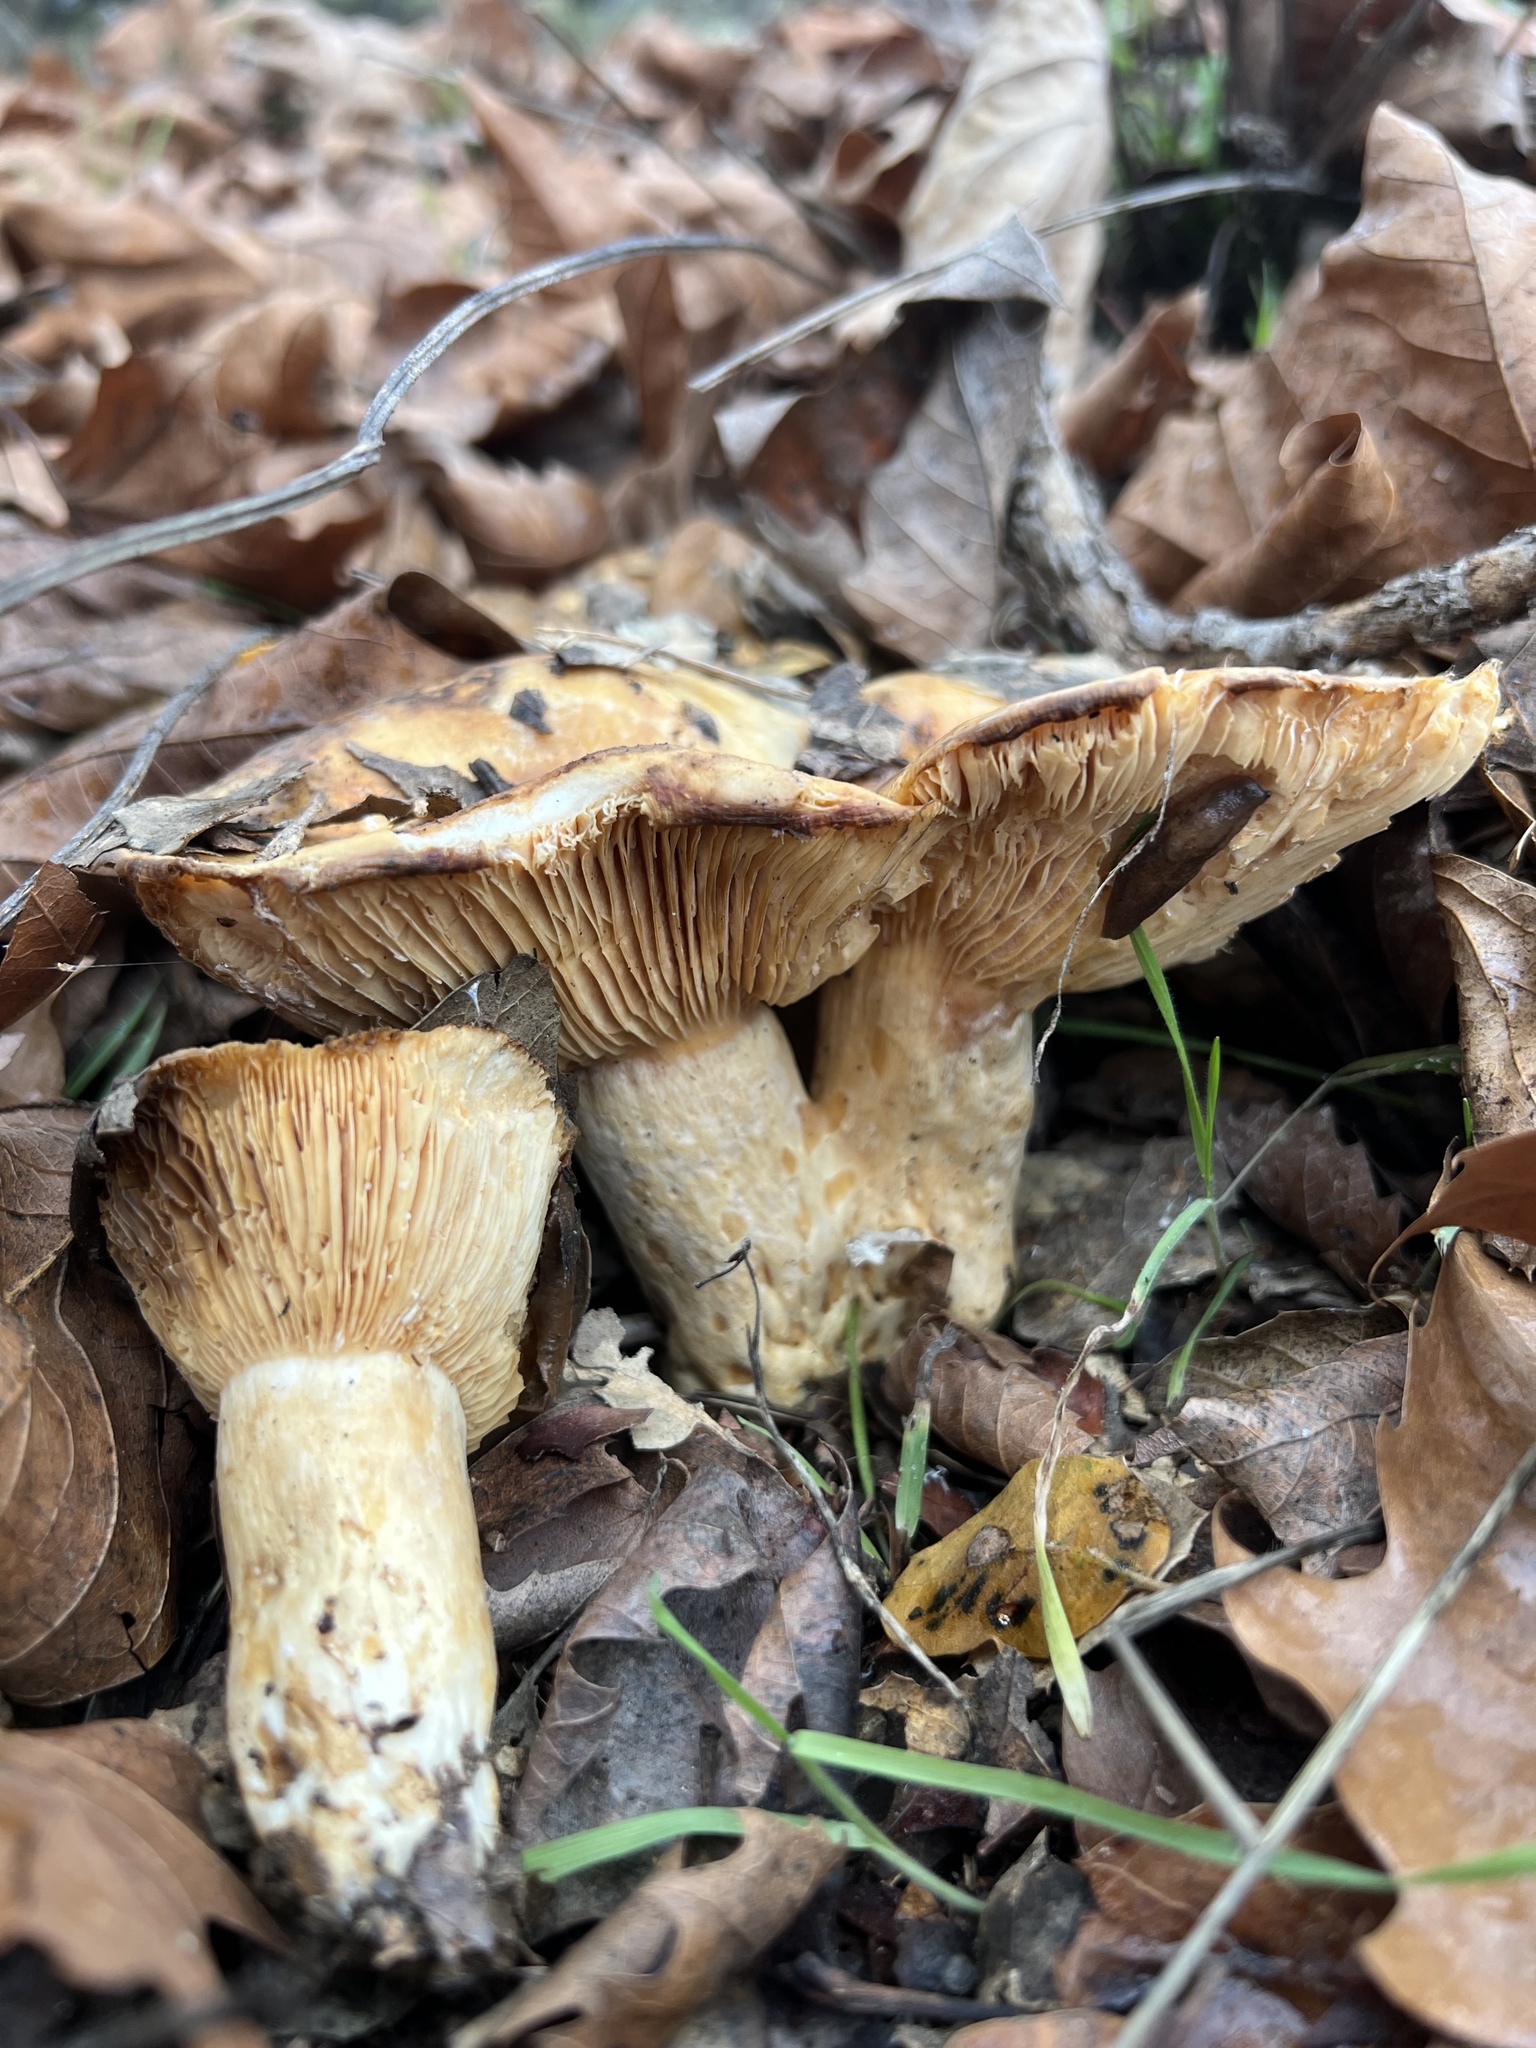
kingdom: Fungi
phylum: Basidiomycota
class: Agaricomycetes
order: Russulales
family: Russulaceae
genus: Lactarius
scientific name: Lactarius alnicola
